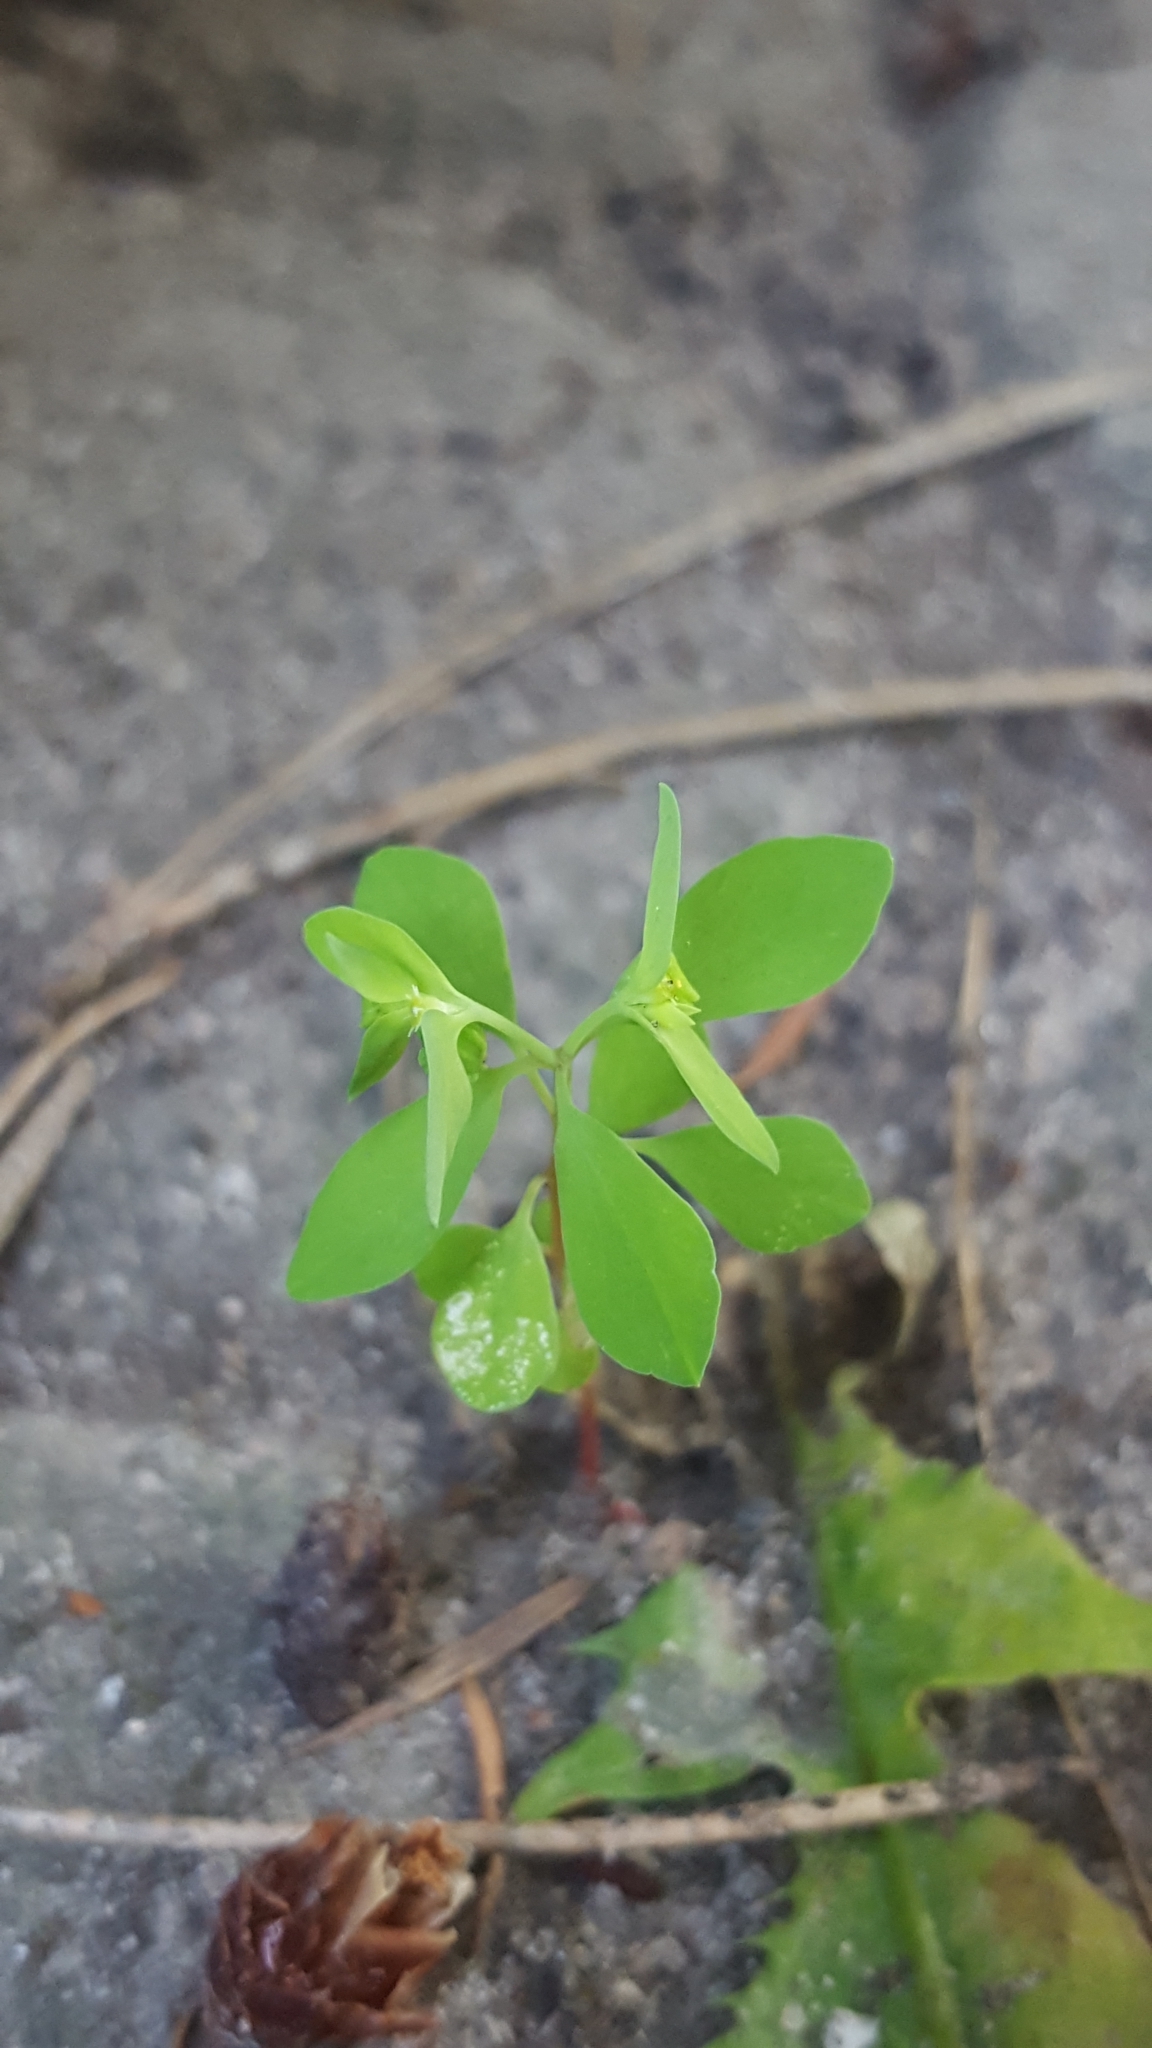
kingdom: Plantae
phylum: Tracheophyta
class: Magnoliopsida
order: Malpighiales
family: Euphorbiaceae
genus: Euphorbia
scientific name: Euphorbia peplus
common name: Petty spurge
